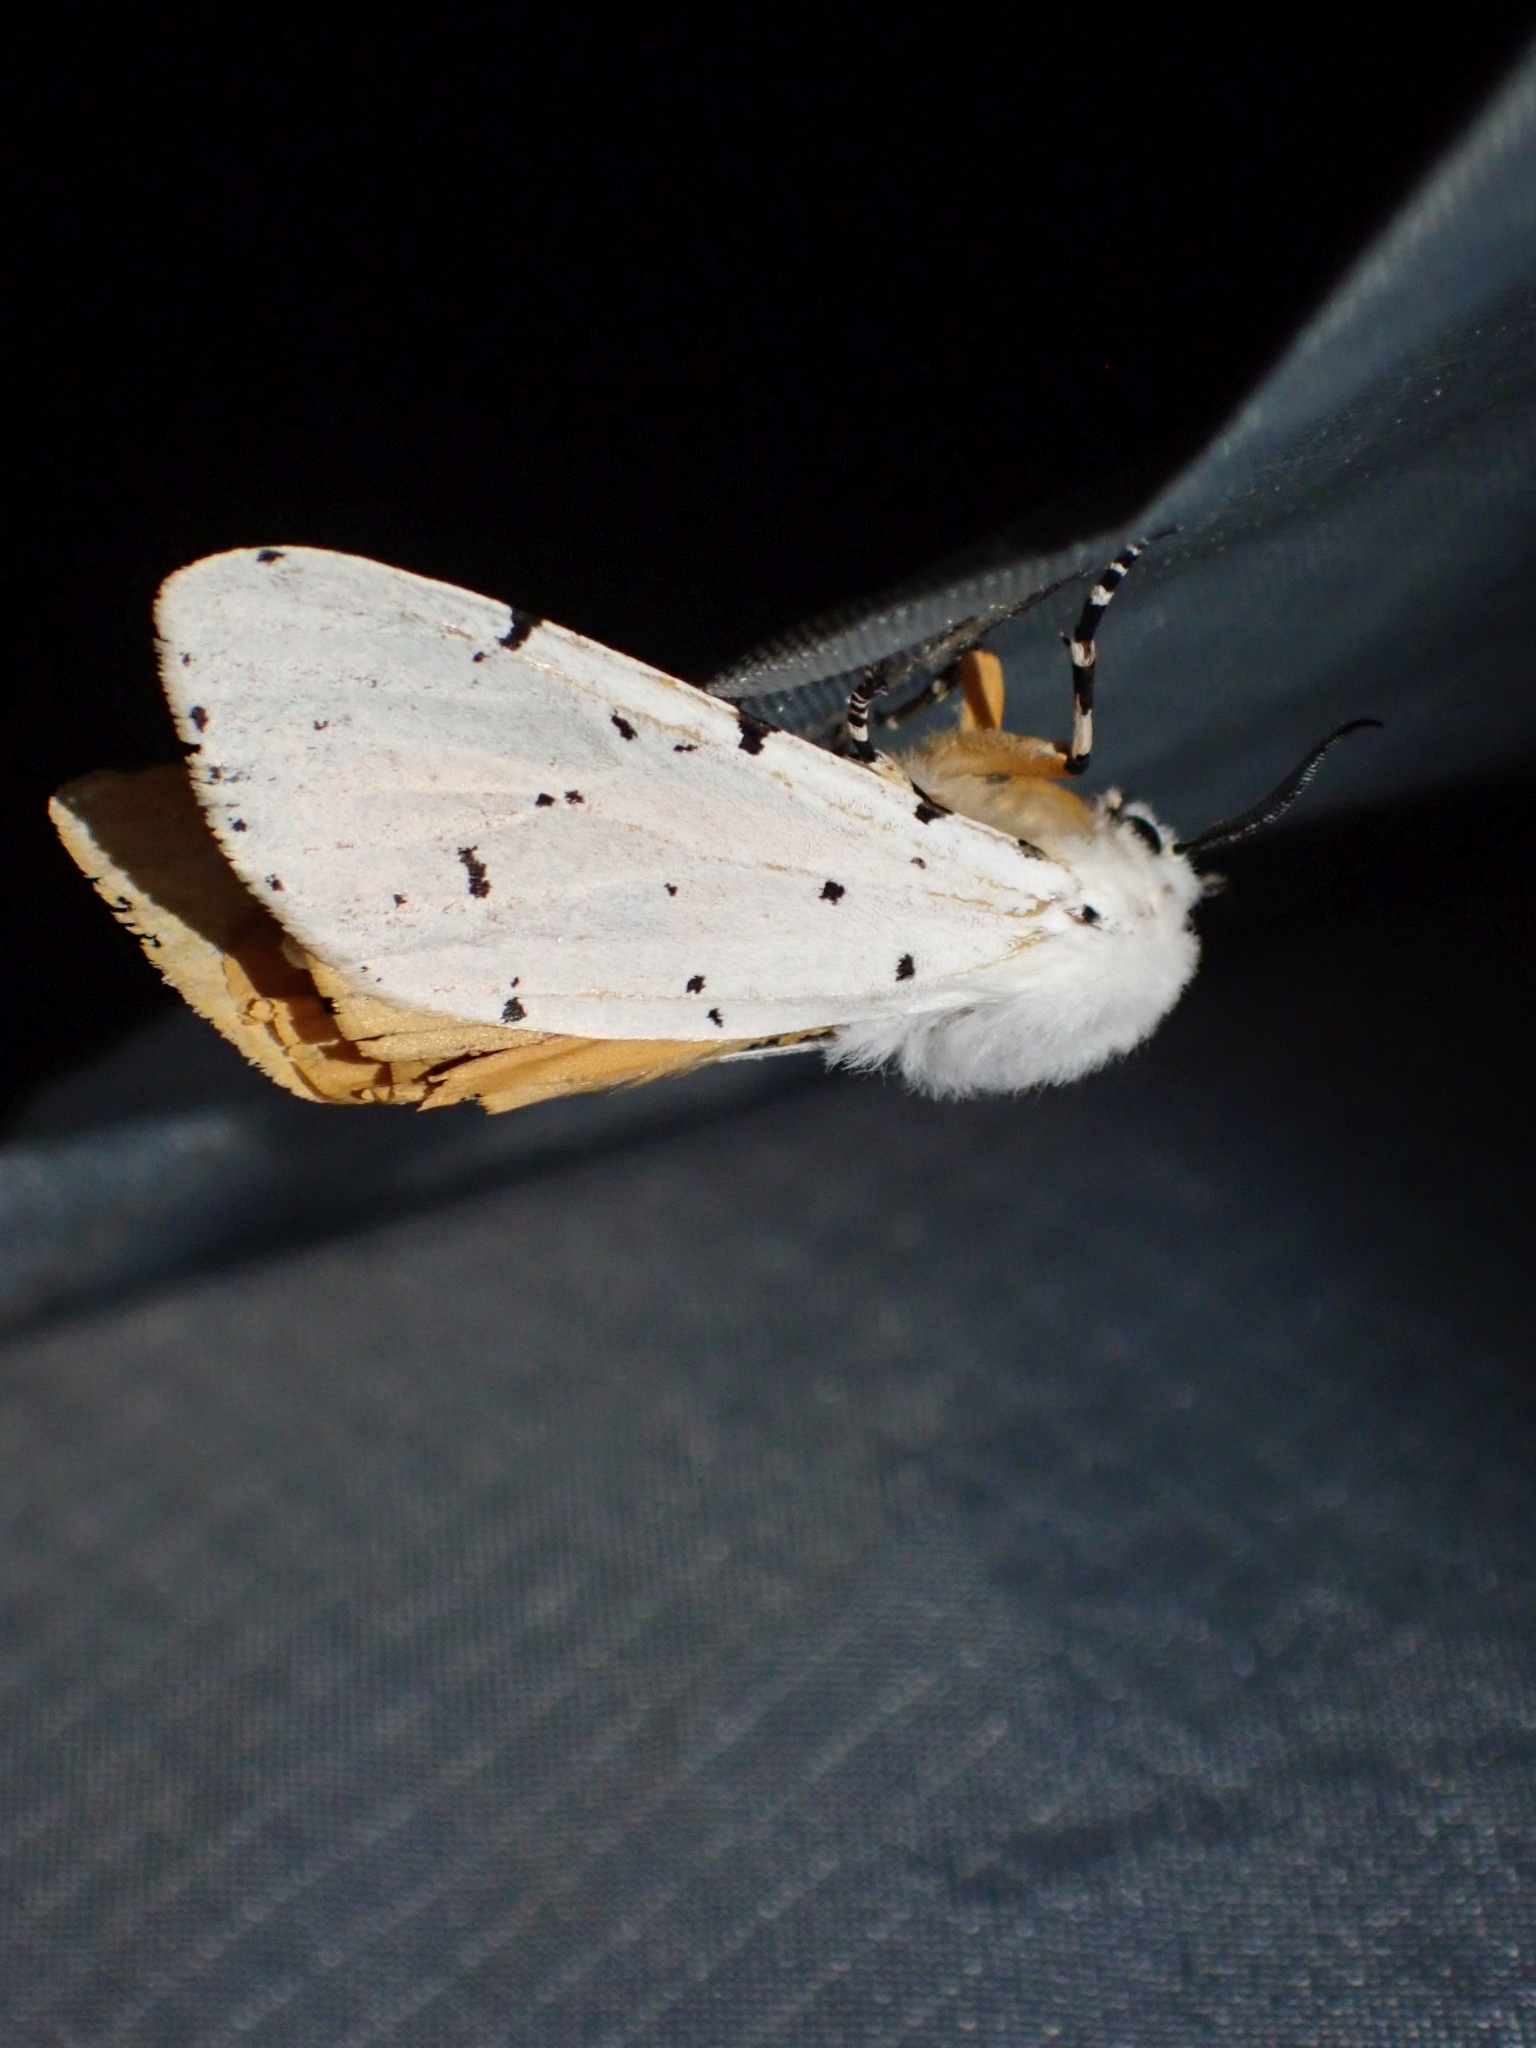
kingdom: Animalia
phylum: Arthropoda
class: Insecta
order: Lepidoptera
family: Erebidae
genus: Estigmene
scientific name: Estigmene acrea
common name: Salt marsh moth
